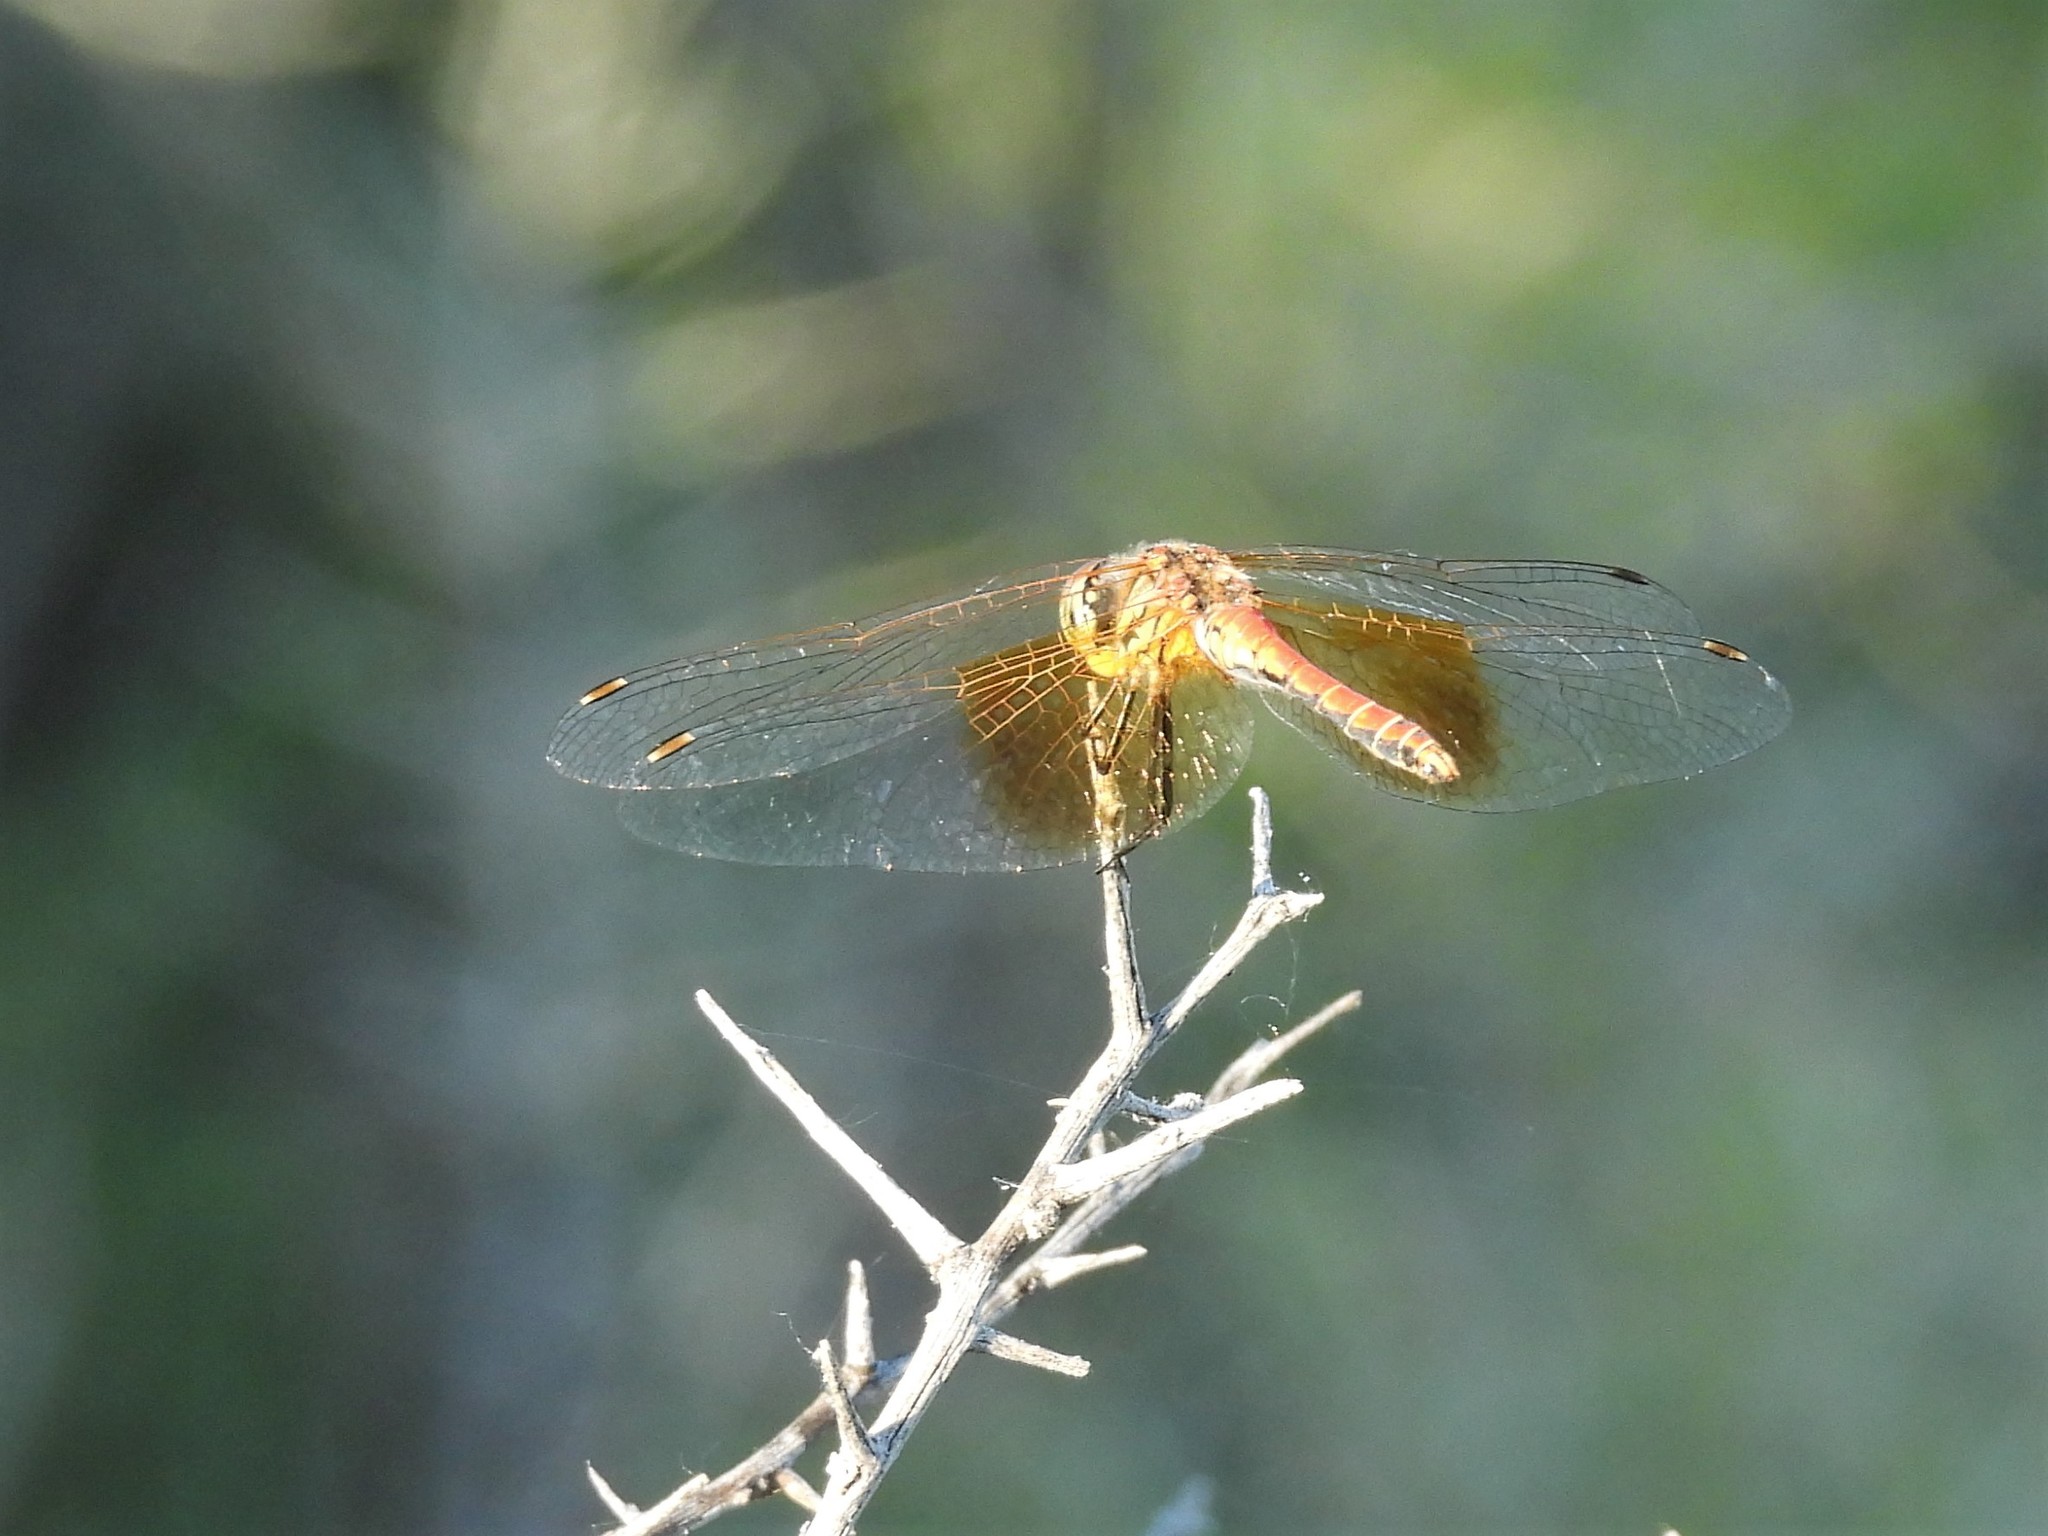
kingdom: Animalia
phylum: Arthropoda
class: Insecta
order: Odonata
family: Libellulidae
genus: Sympetrum
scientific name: Sympetrum semicinctum
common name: Band-winged meadowhawk
